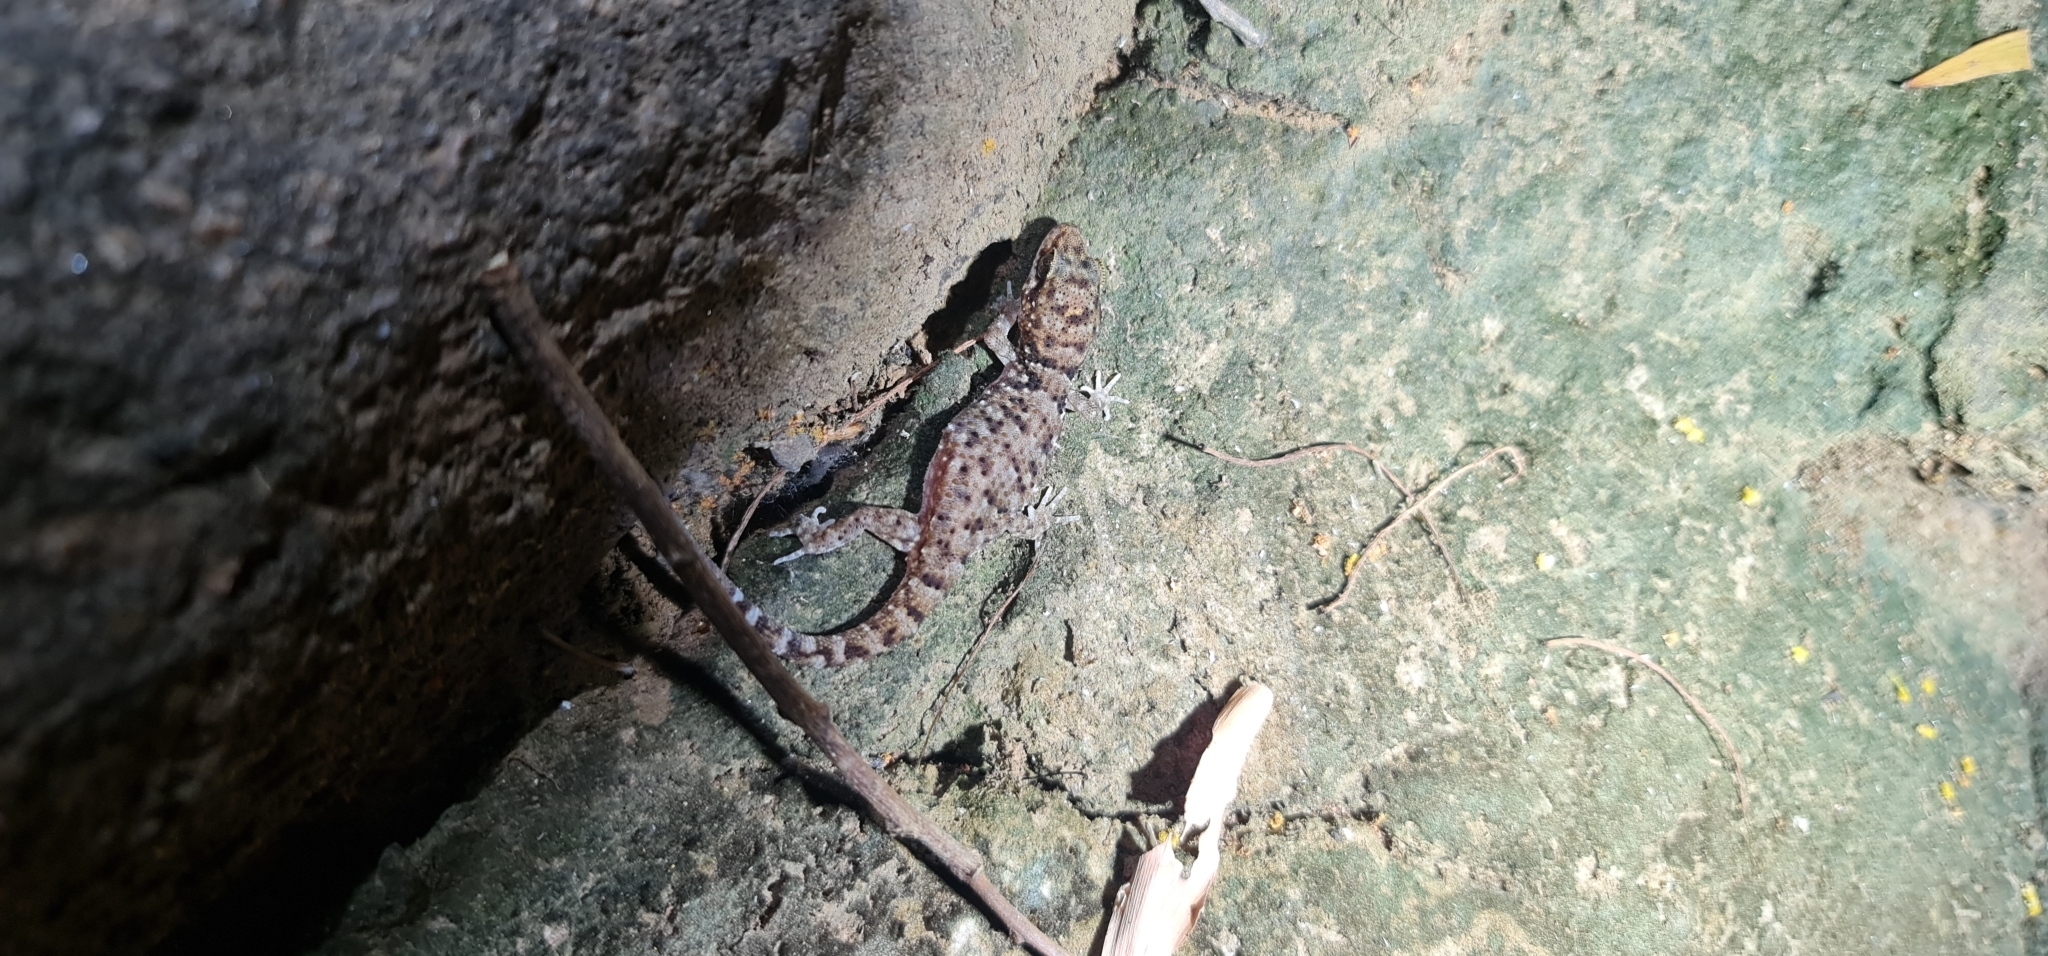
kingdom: Animalia
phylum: Chordata
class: Squamata
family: Gekkonidae
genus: Heteronotia
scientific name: Heteronotia binoei
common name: Bynoe's gecko
